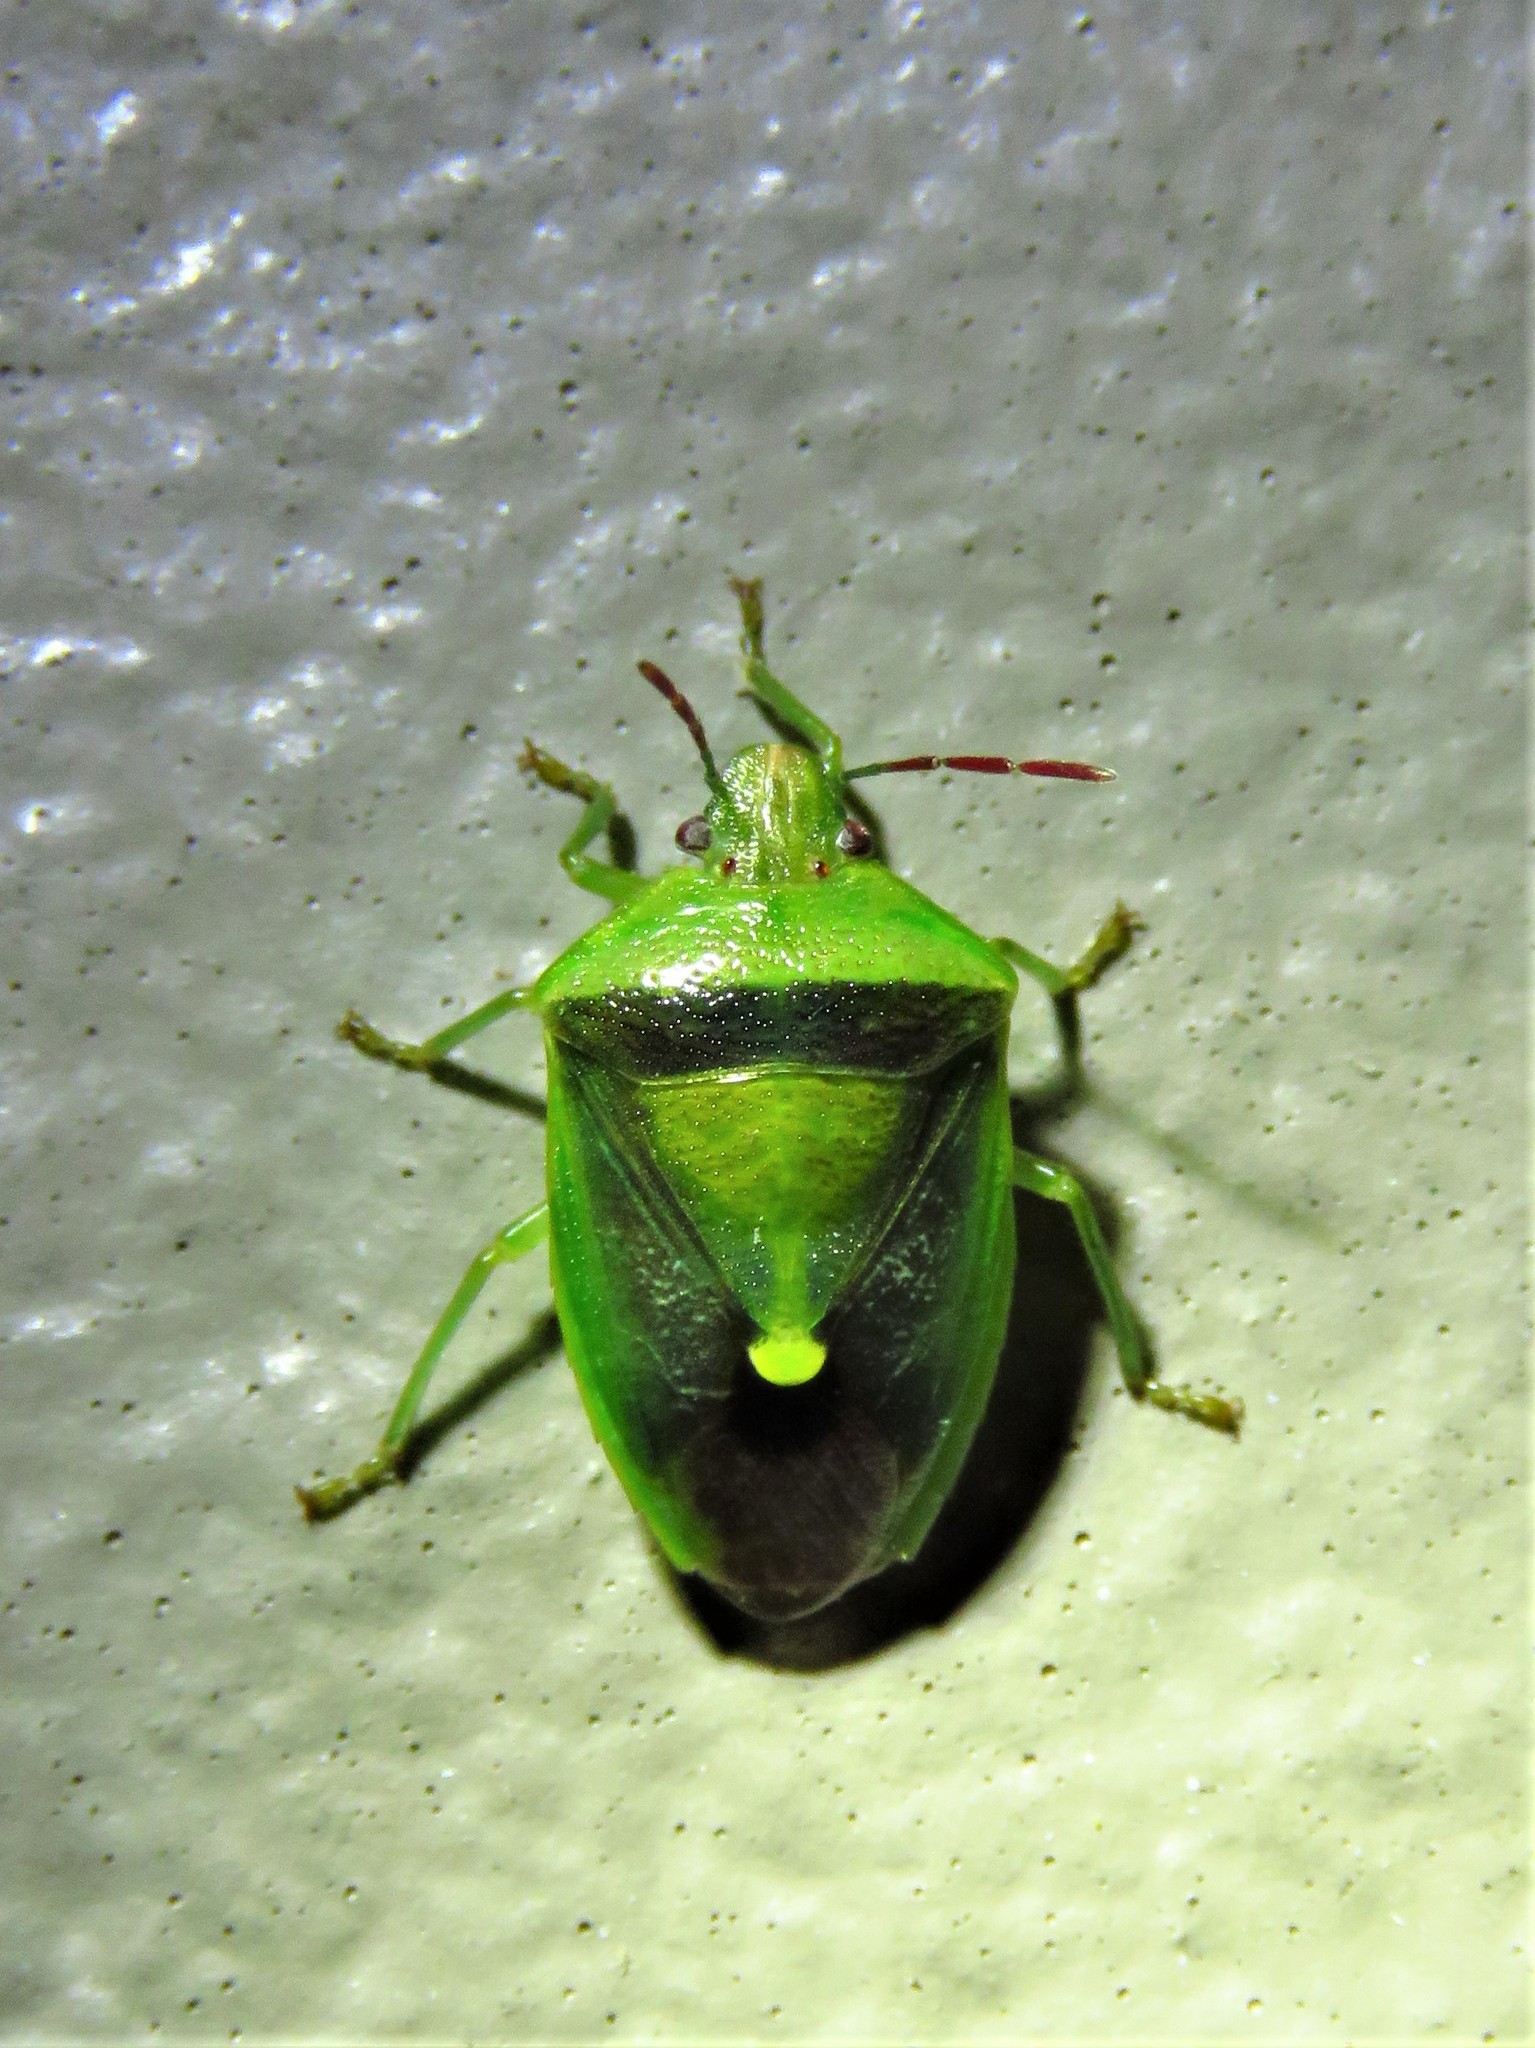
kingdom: Animalia
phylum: Arthropoda
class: Insecta
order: Hemiptera
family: Pentatomidae
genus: Banasa
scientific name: Banasa dimidiata
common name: Green burgundy stink bug
